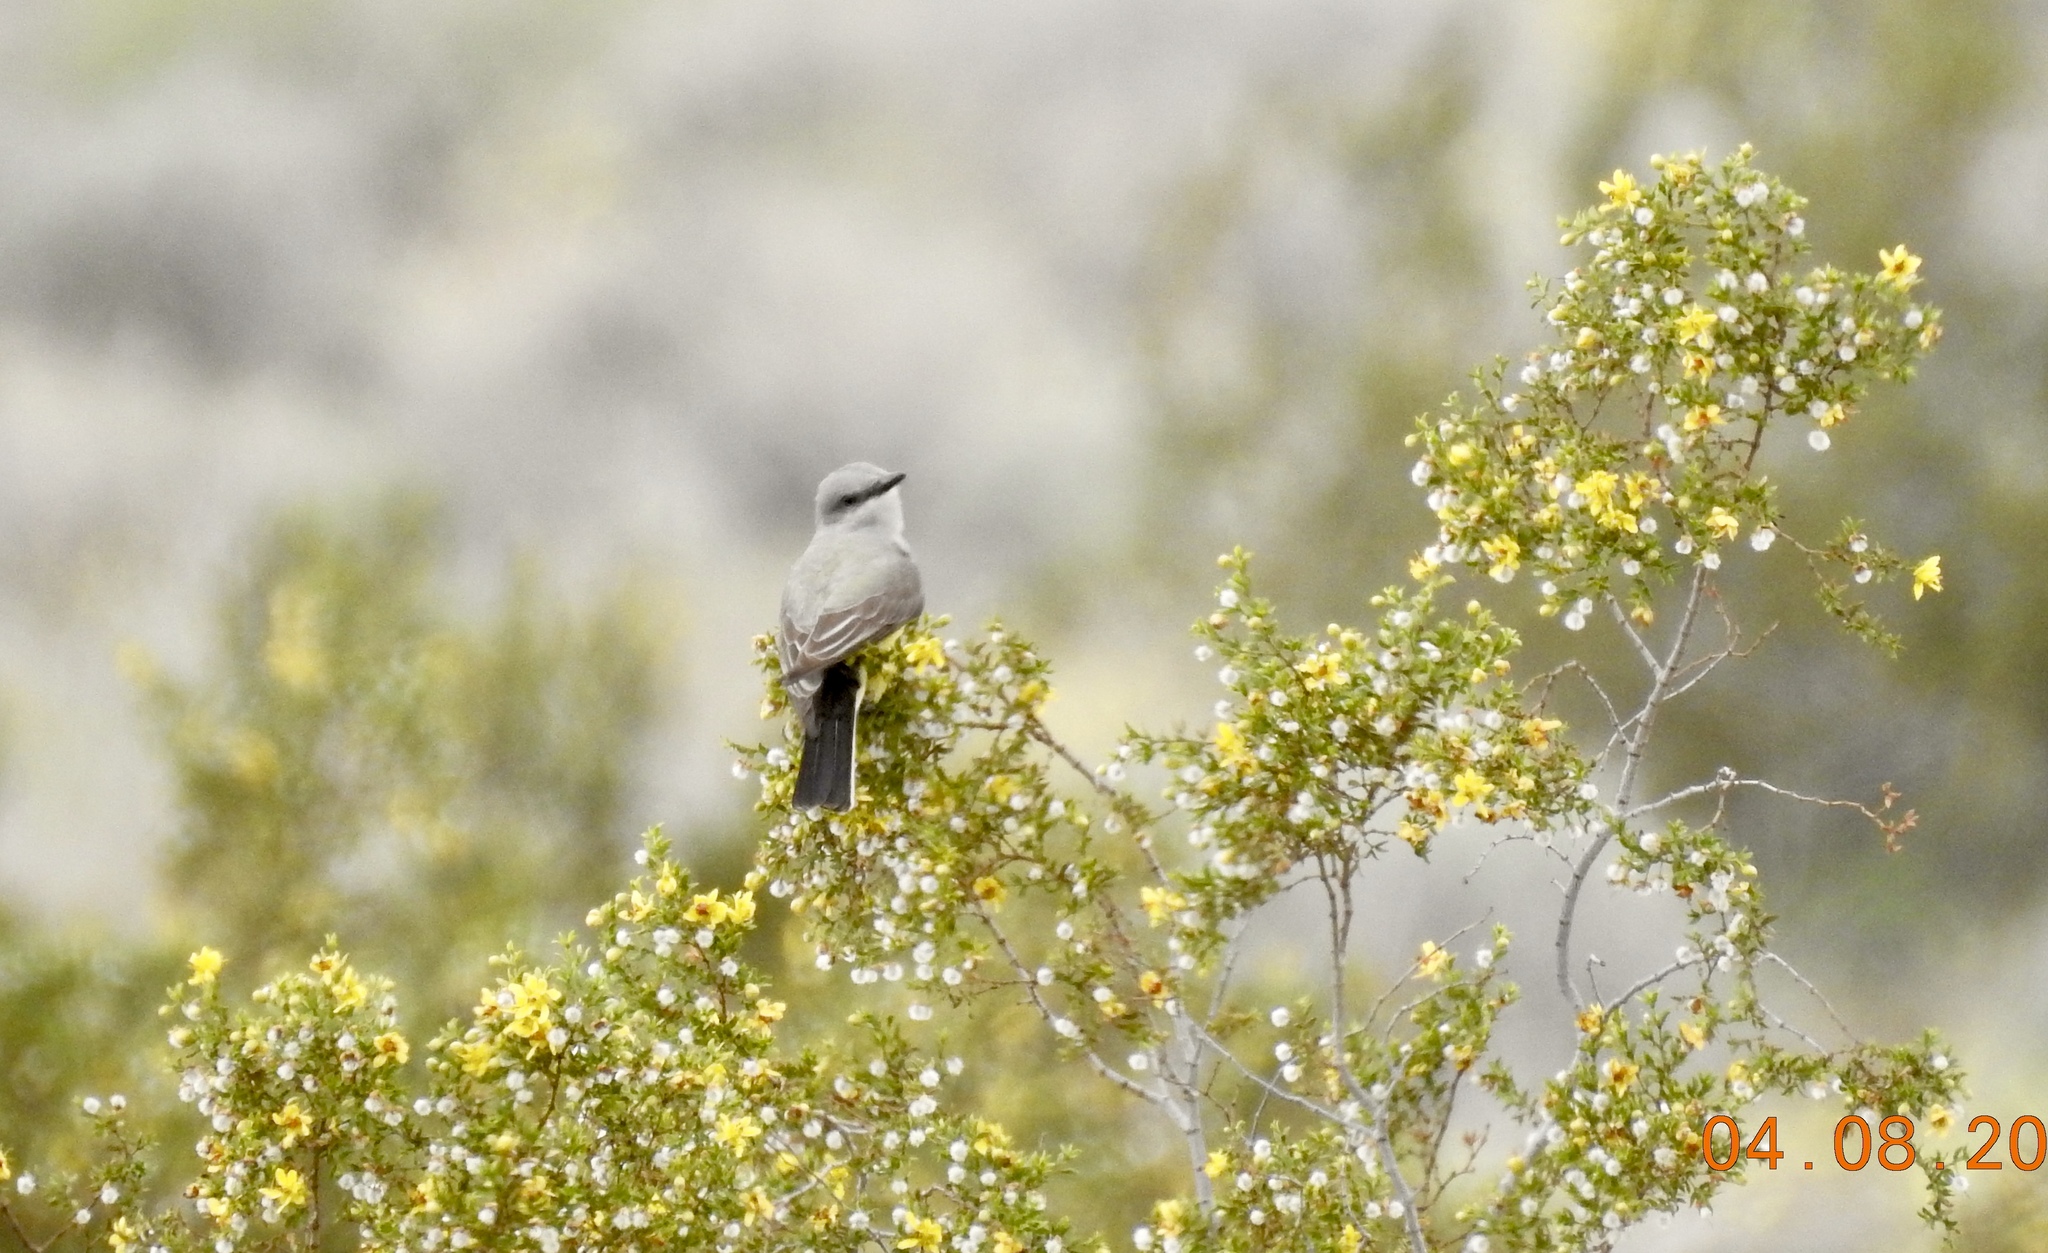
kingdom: Animalia
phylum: Chordata
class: Aves
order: Passeriformes
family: Tyrannidae
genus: Tyrannus
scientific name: Tyrannus verticalis
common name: Western kingbird
